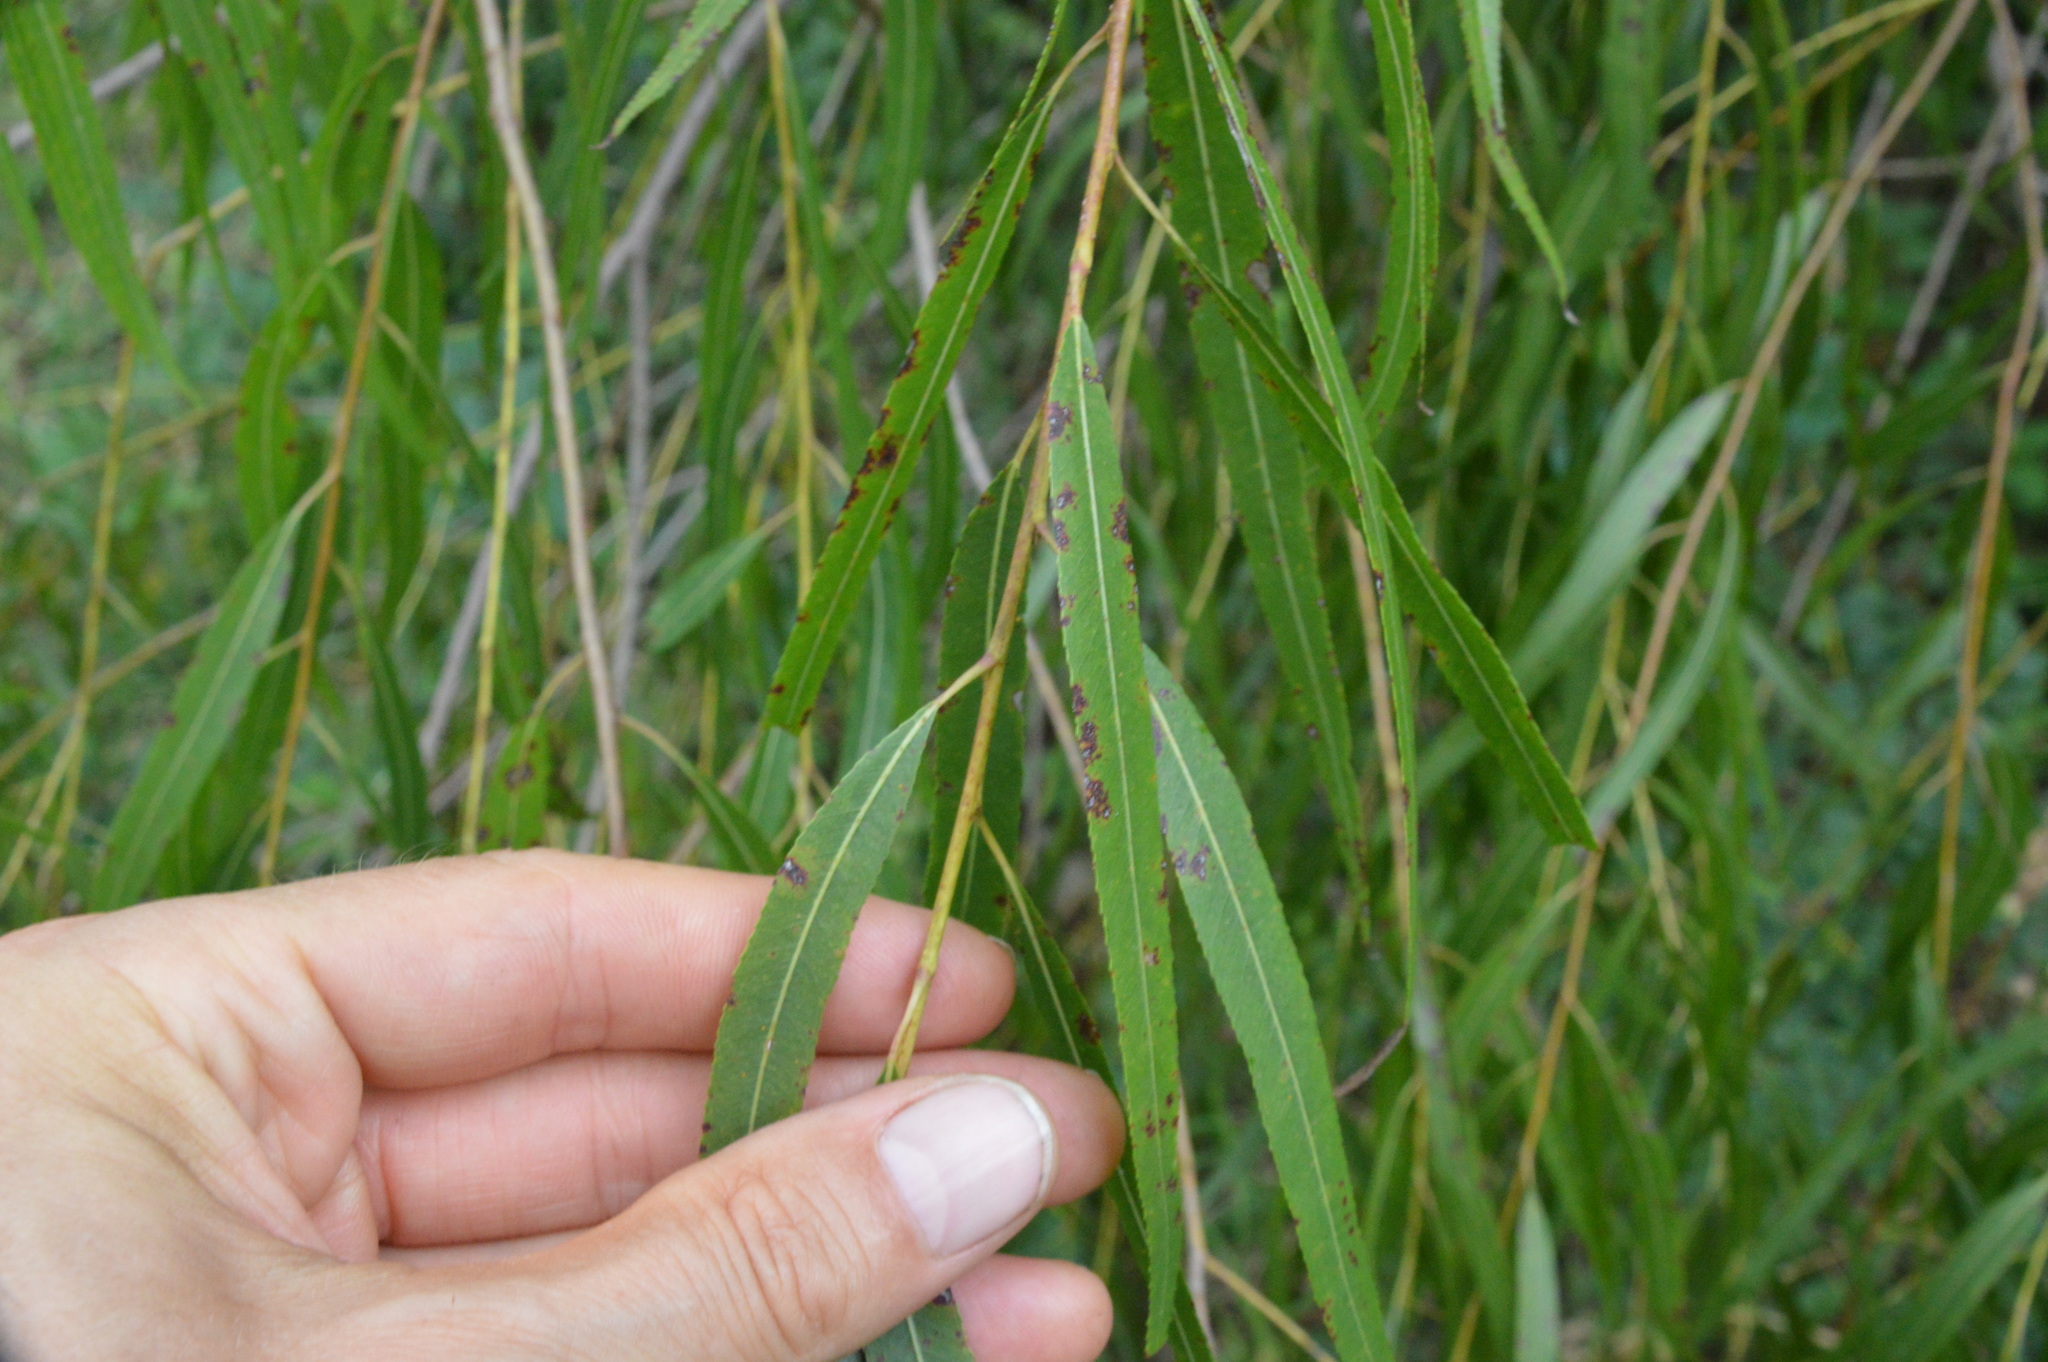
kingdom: Plantae
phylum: Tracheophyta
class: Magnoliopsida
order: Malpighiales
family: Salicaceae
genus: Salix
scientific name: Salix nigra
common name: Black willow
